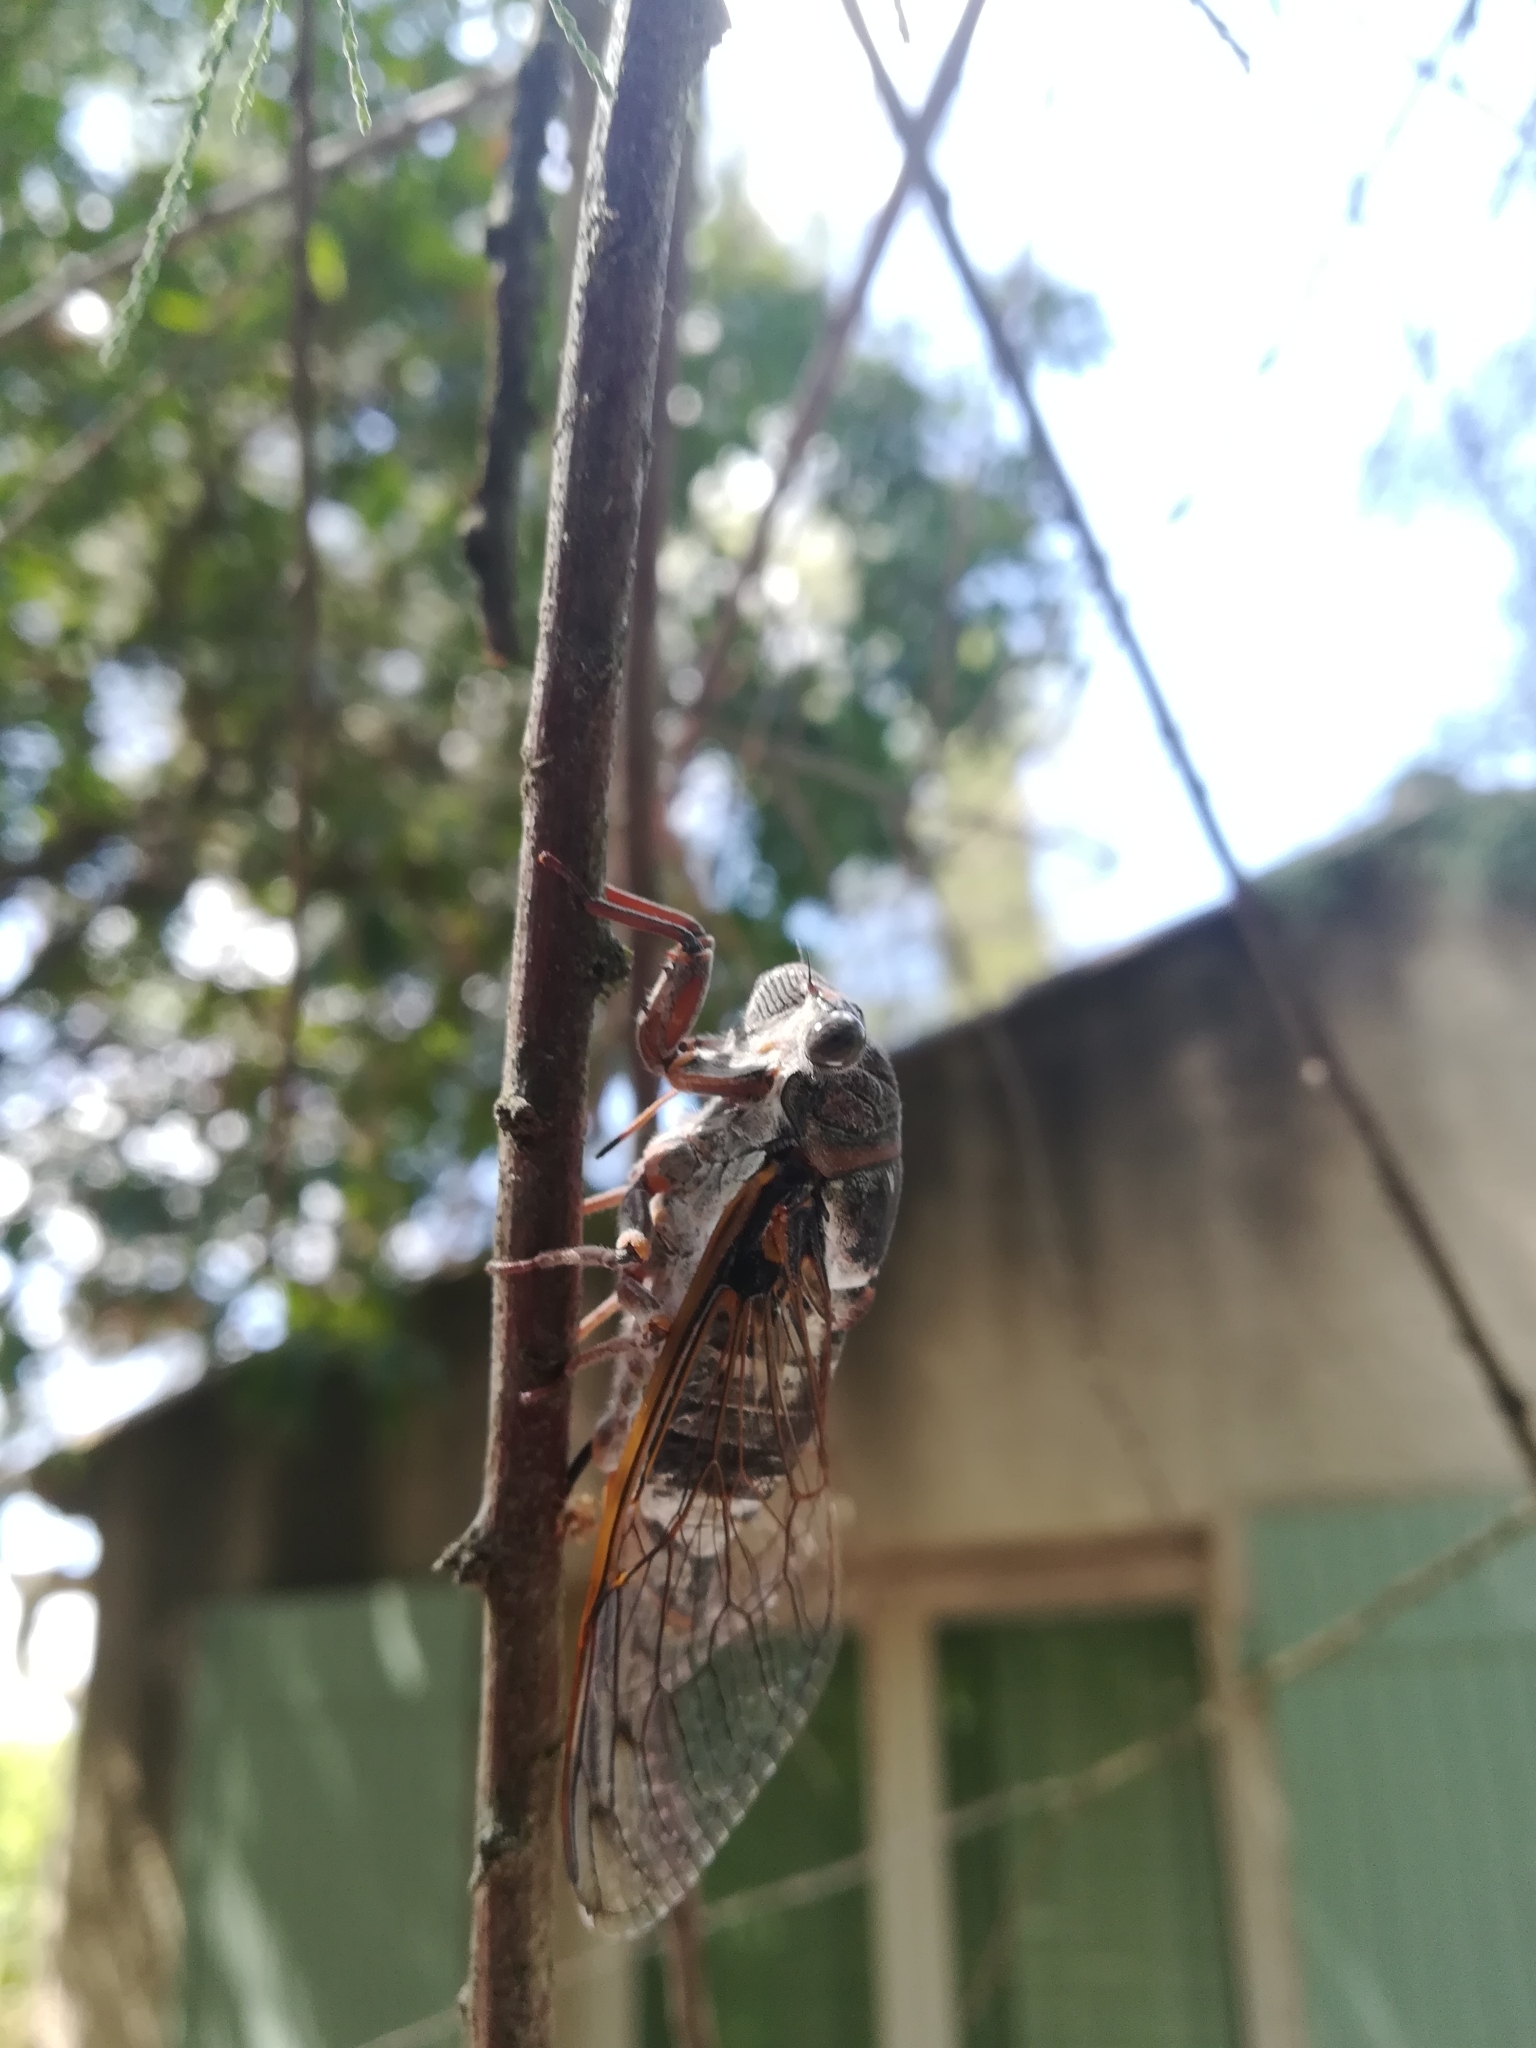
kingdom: Animalia
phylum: Arthropoda
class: Insecta
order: Hemiptera
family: Cicadidae
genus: Lyristes
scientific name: Lyristes plebejus
